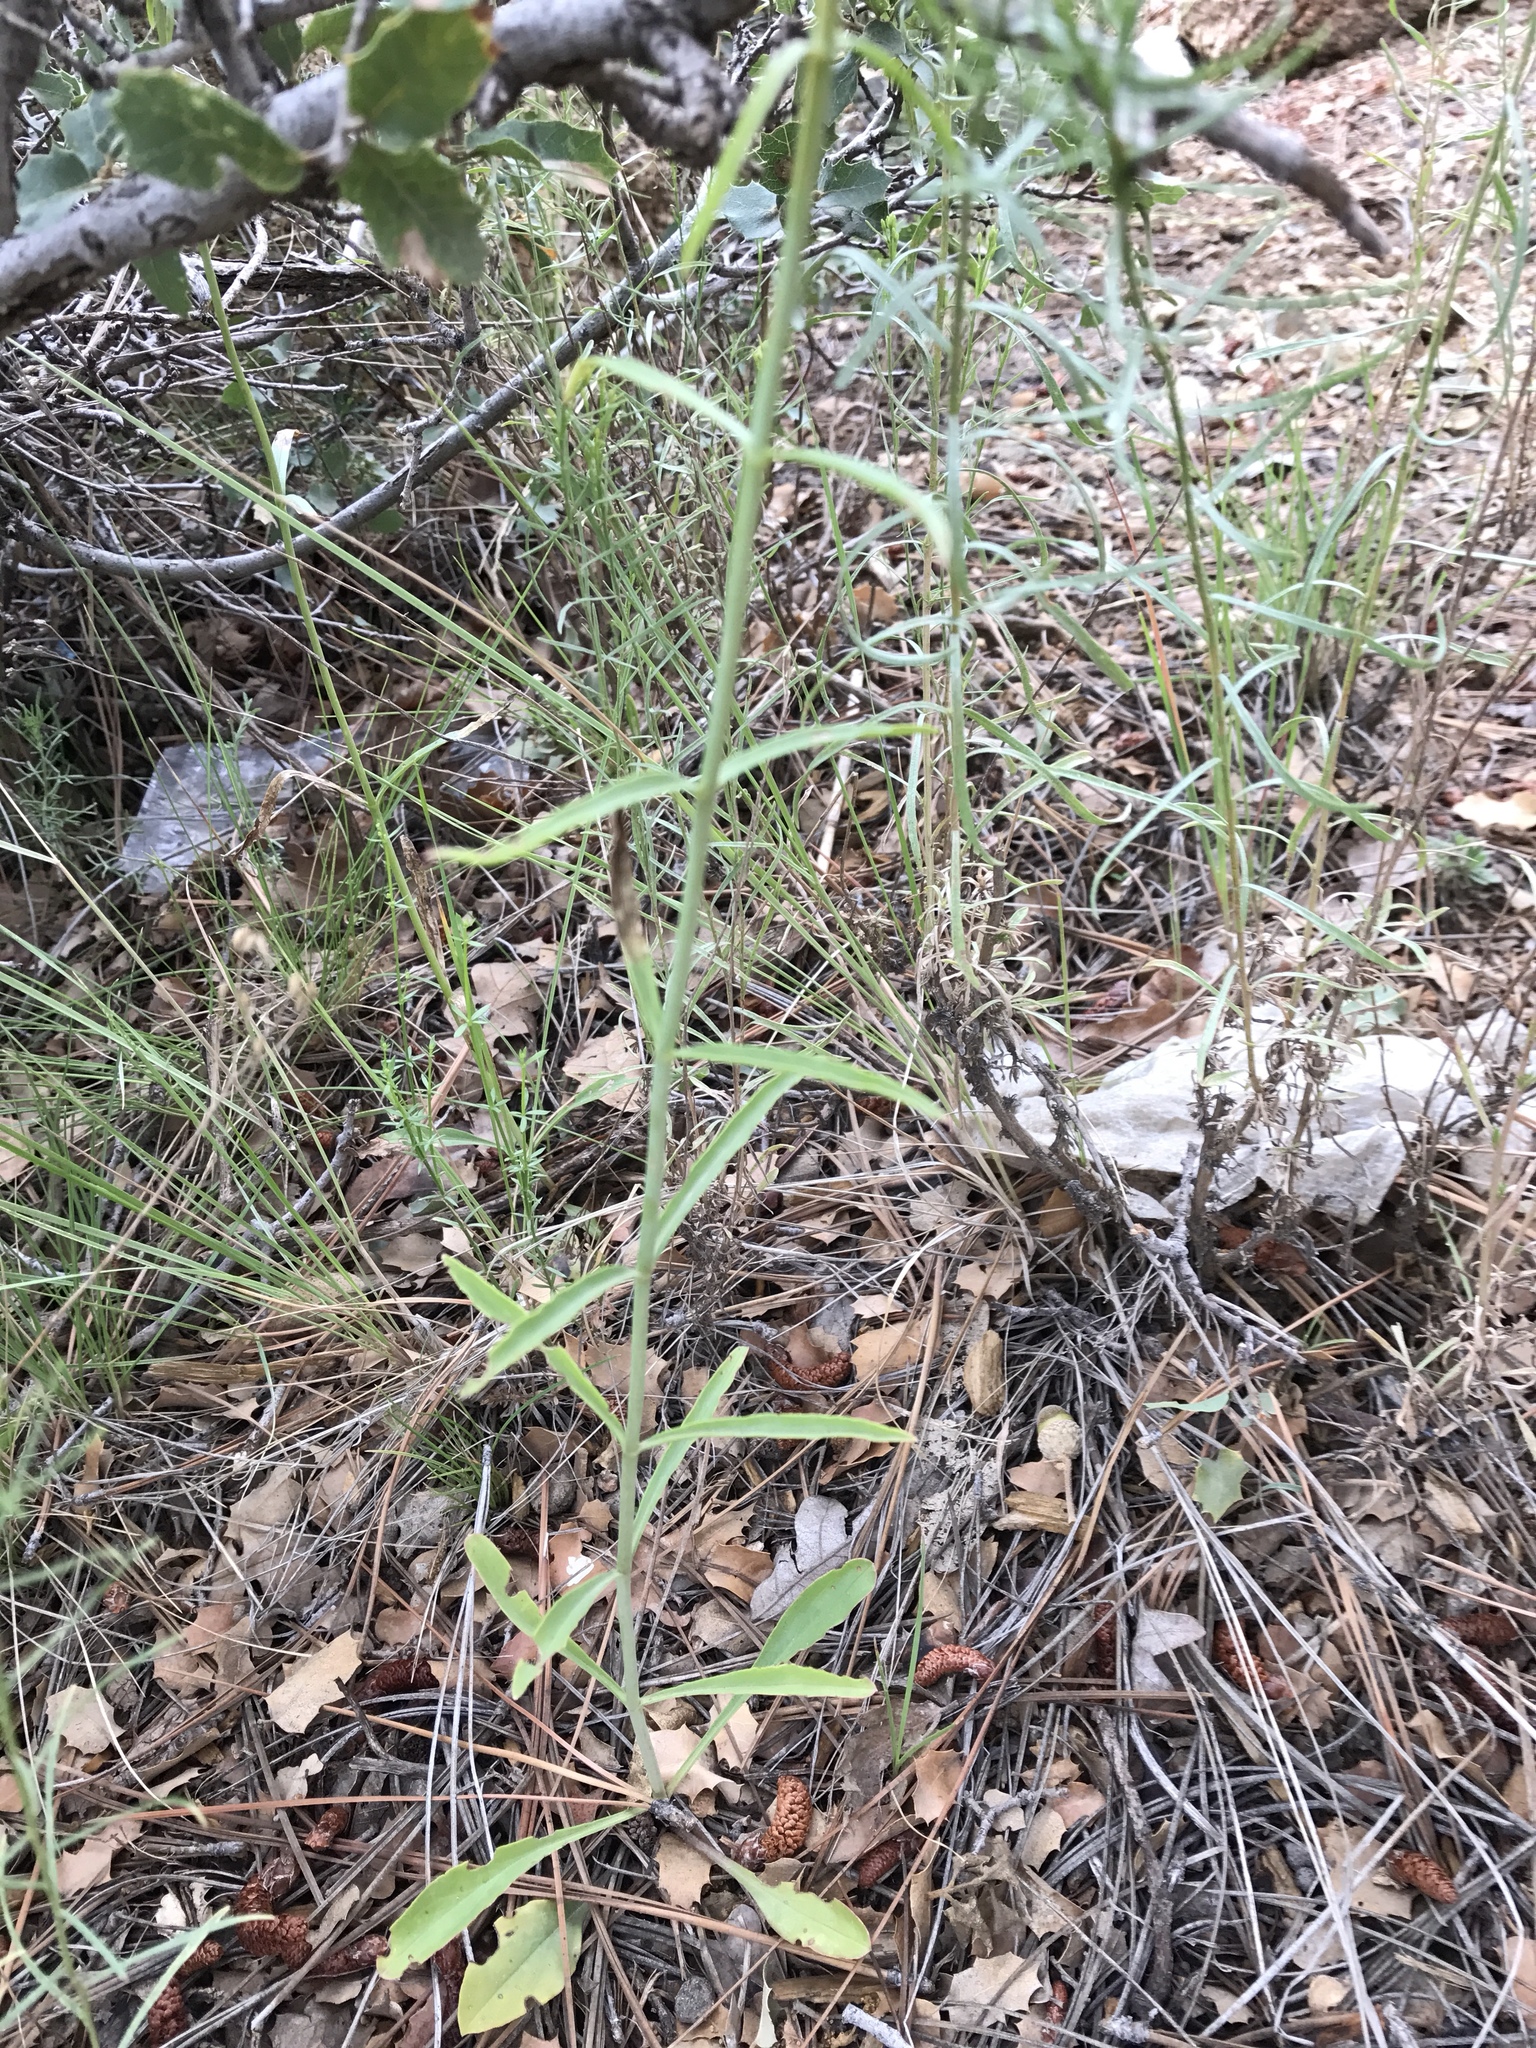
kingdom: Plantae
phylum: Tracheophyta
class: Magnoliopsida
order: Lamiales
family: Plantaginaceae
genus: Penstemon
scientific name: Penstemon barbatus
